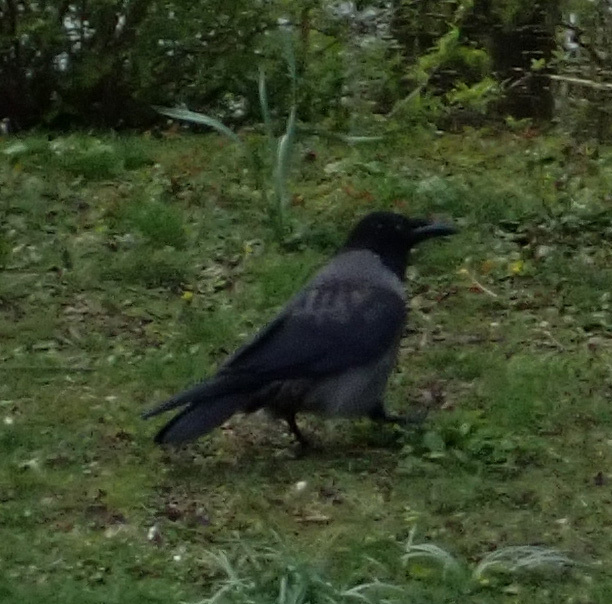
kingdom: Animalia
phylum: Chordata
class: Aves
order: Passeriformes
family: Corvidae
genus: Corvus
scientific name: Corvus
